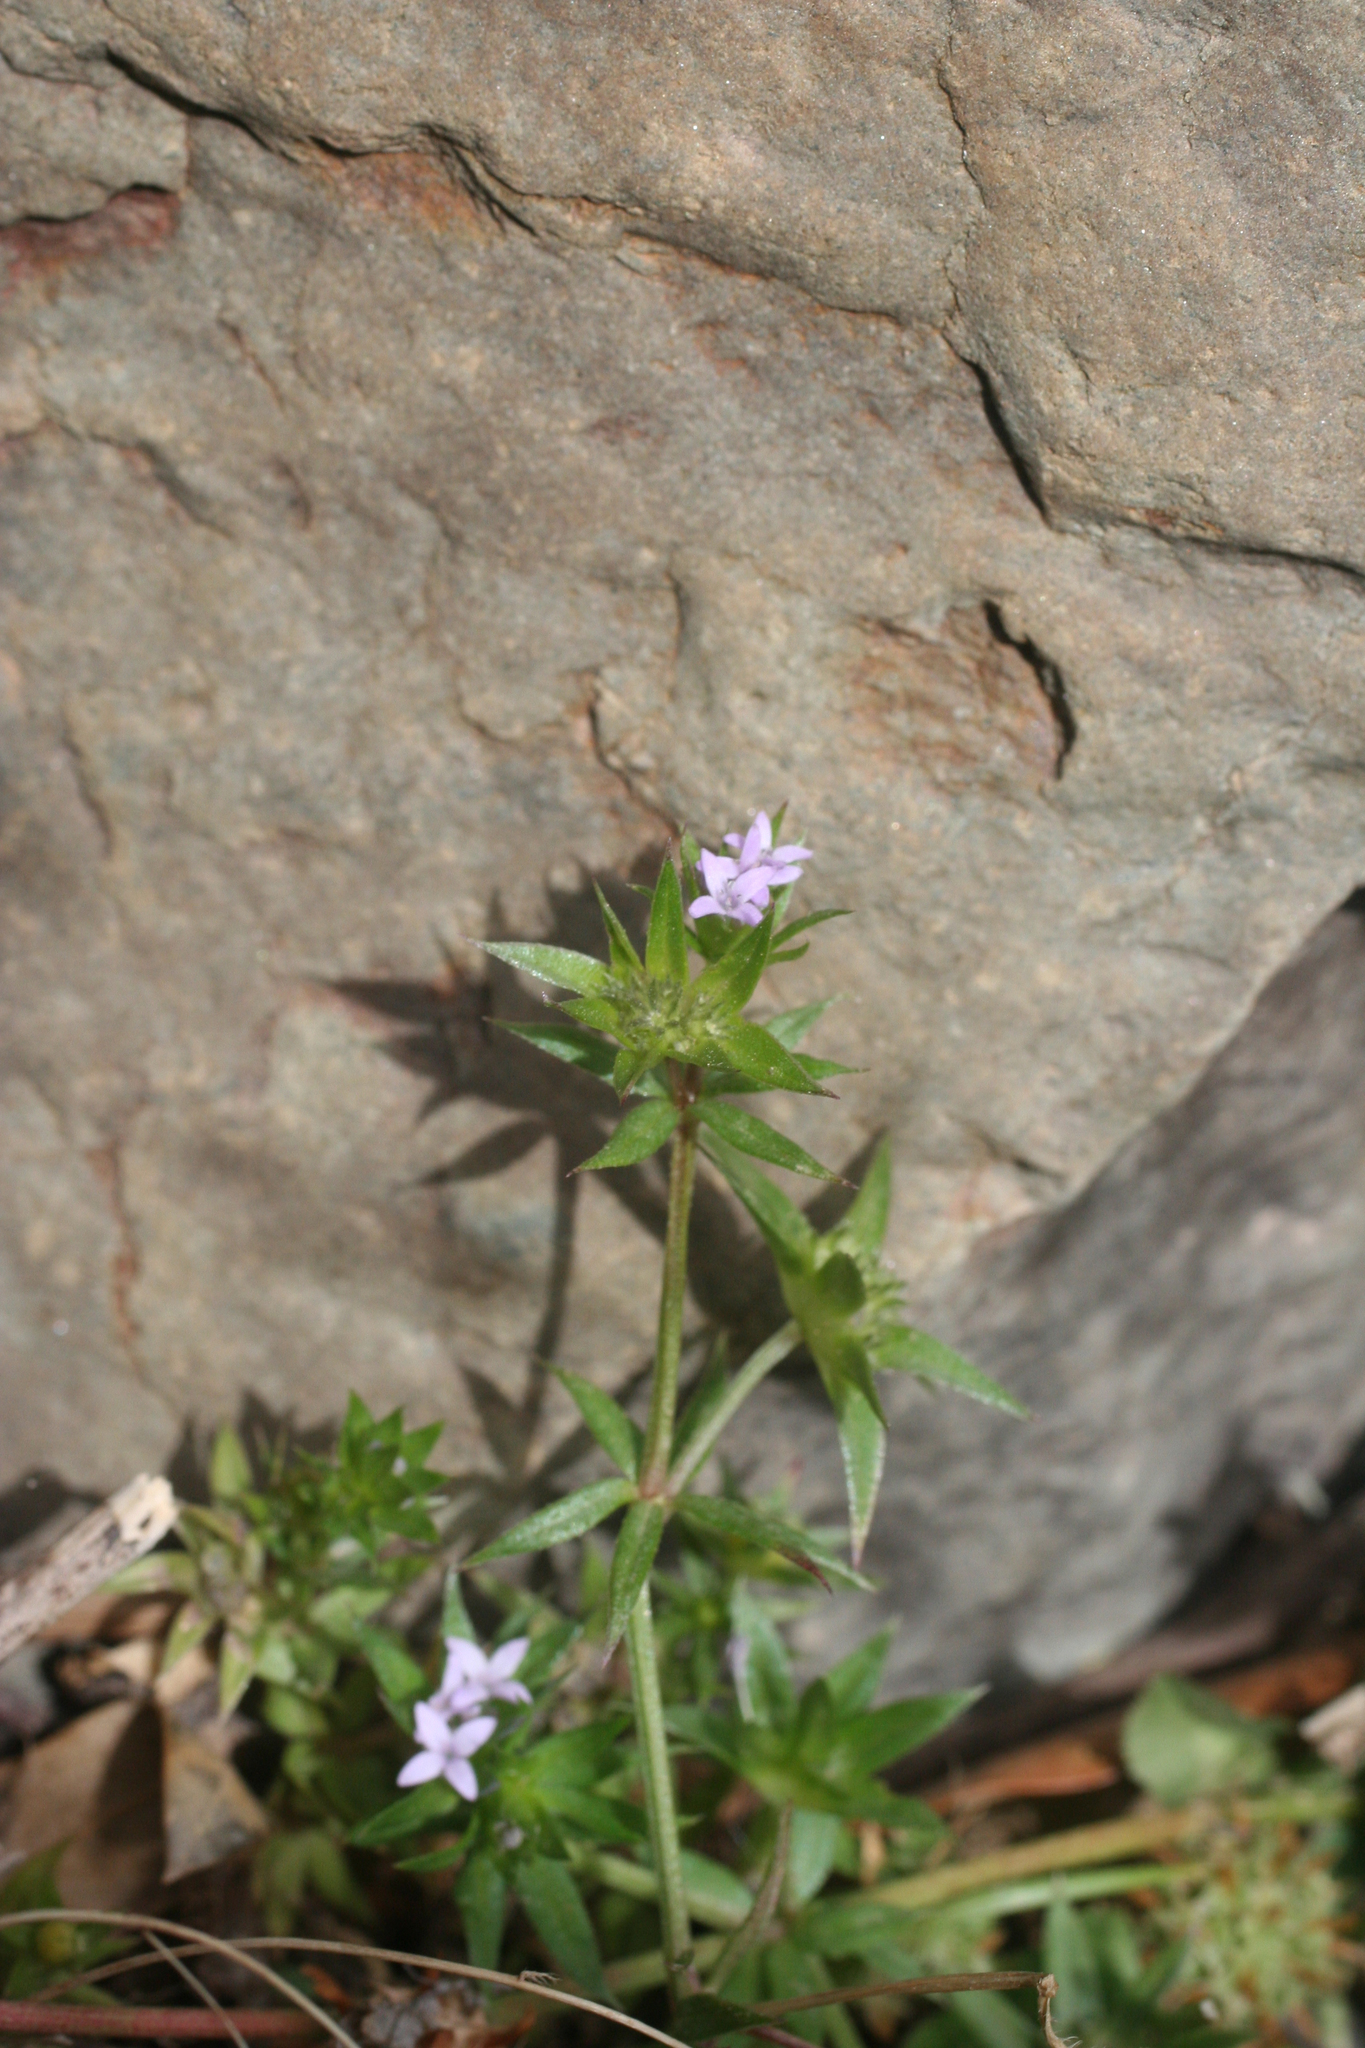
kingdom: Plantae
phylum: Tracheophyta
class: Magnoliopsida
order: Gentianales
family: Rubiaceae
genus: Sherardia
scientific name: Sherardia arvensis
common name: Field madder
